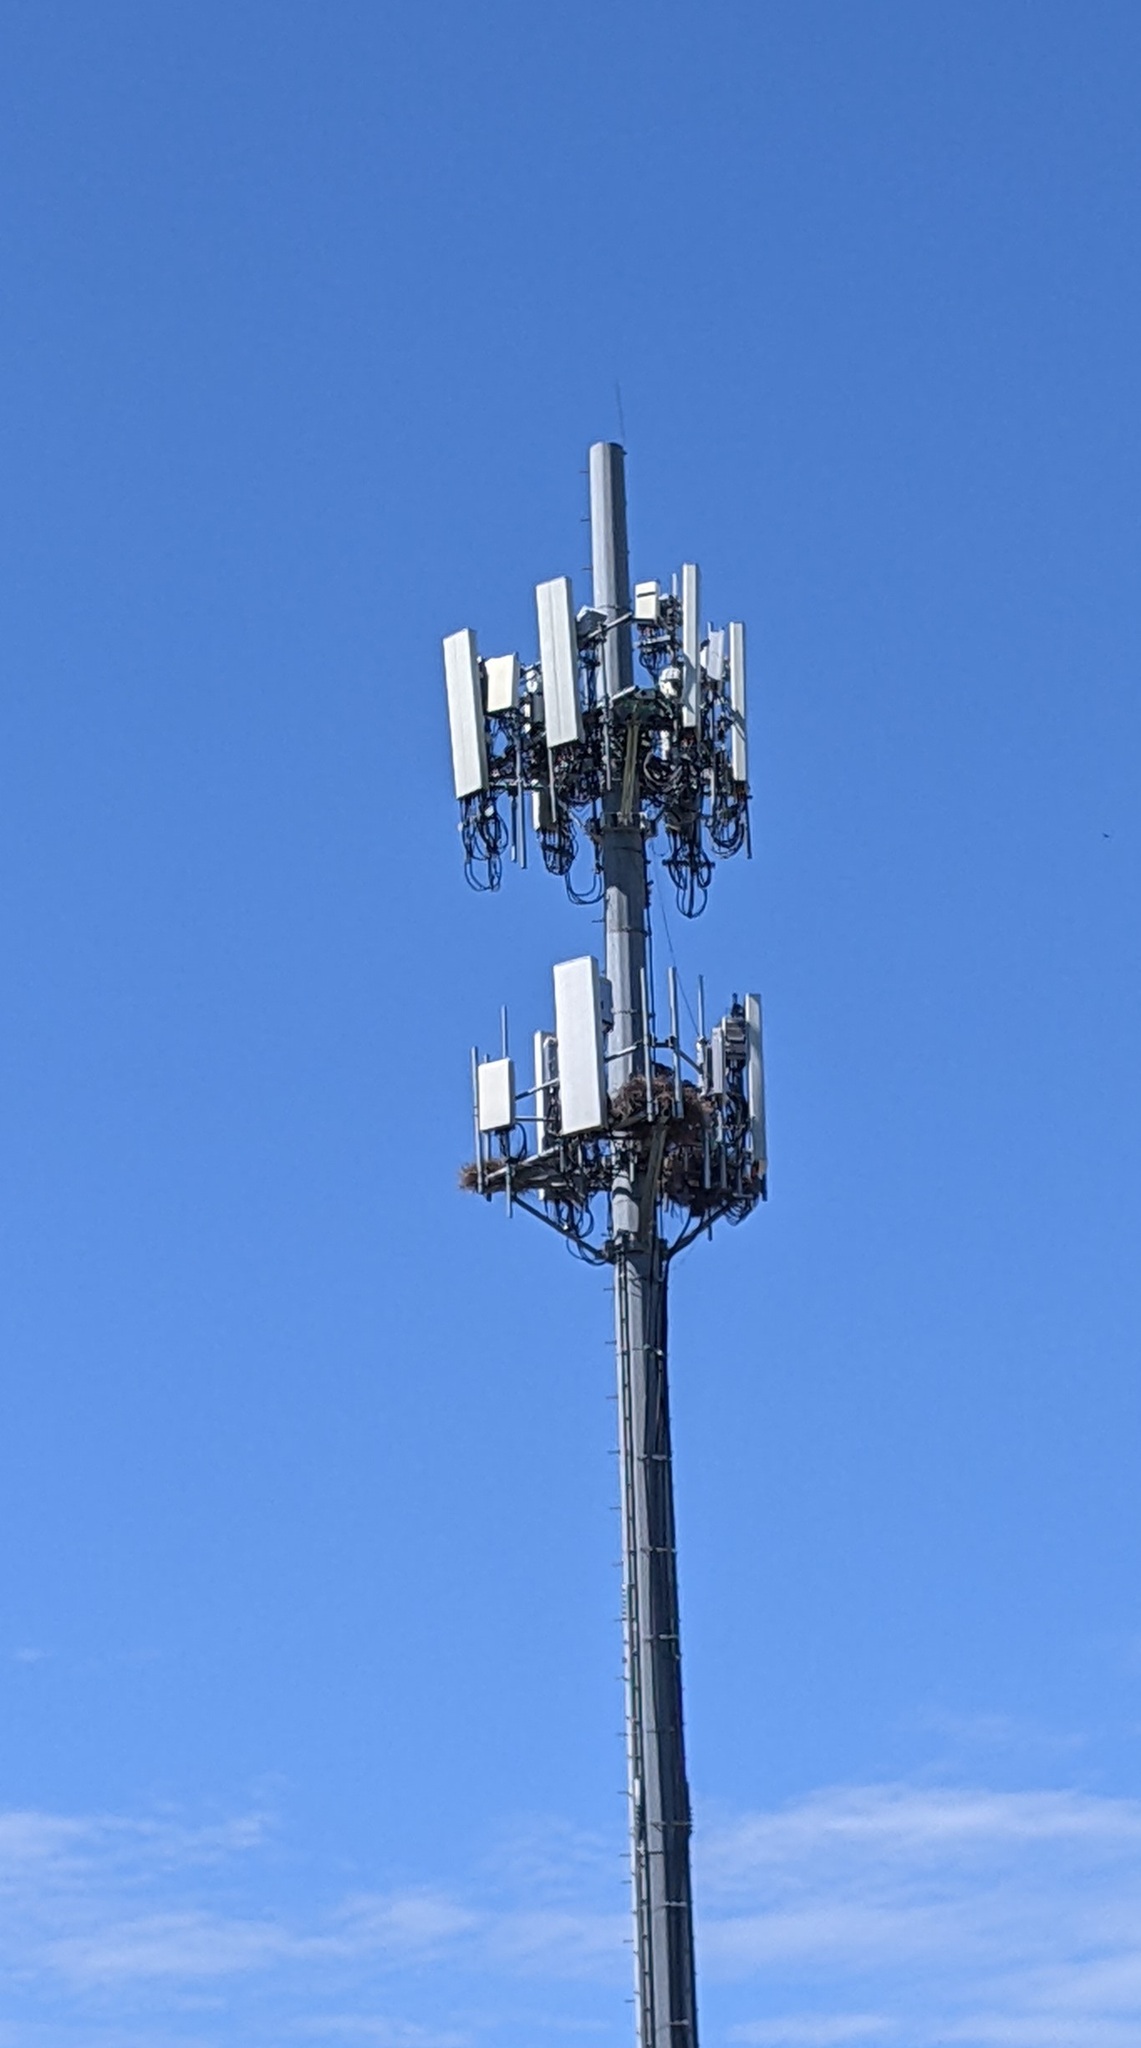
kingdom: Animalia
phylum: Chordata
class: Aves
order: Psittaciformes
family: Psittacidae
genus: Myiopsitta
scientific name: Myiopsitta monachus
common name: Monk parakeet
